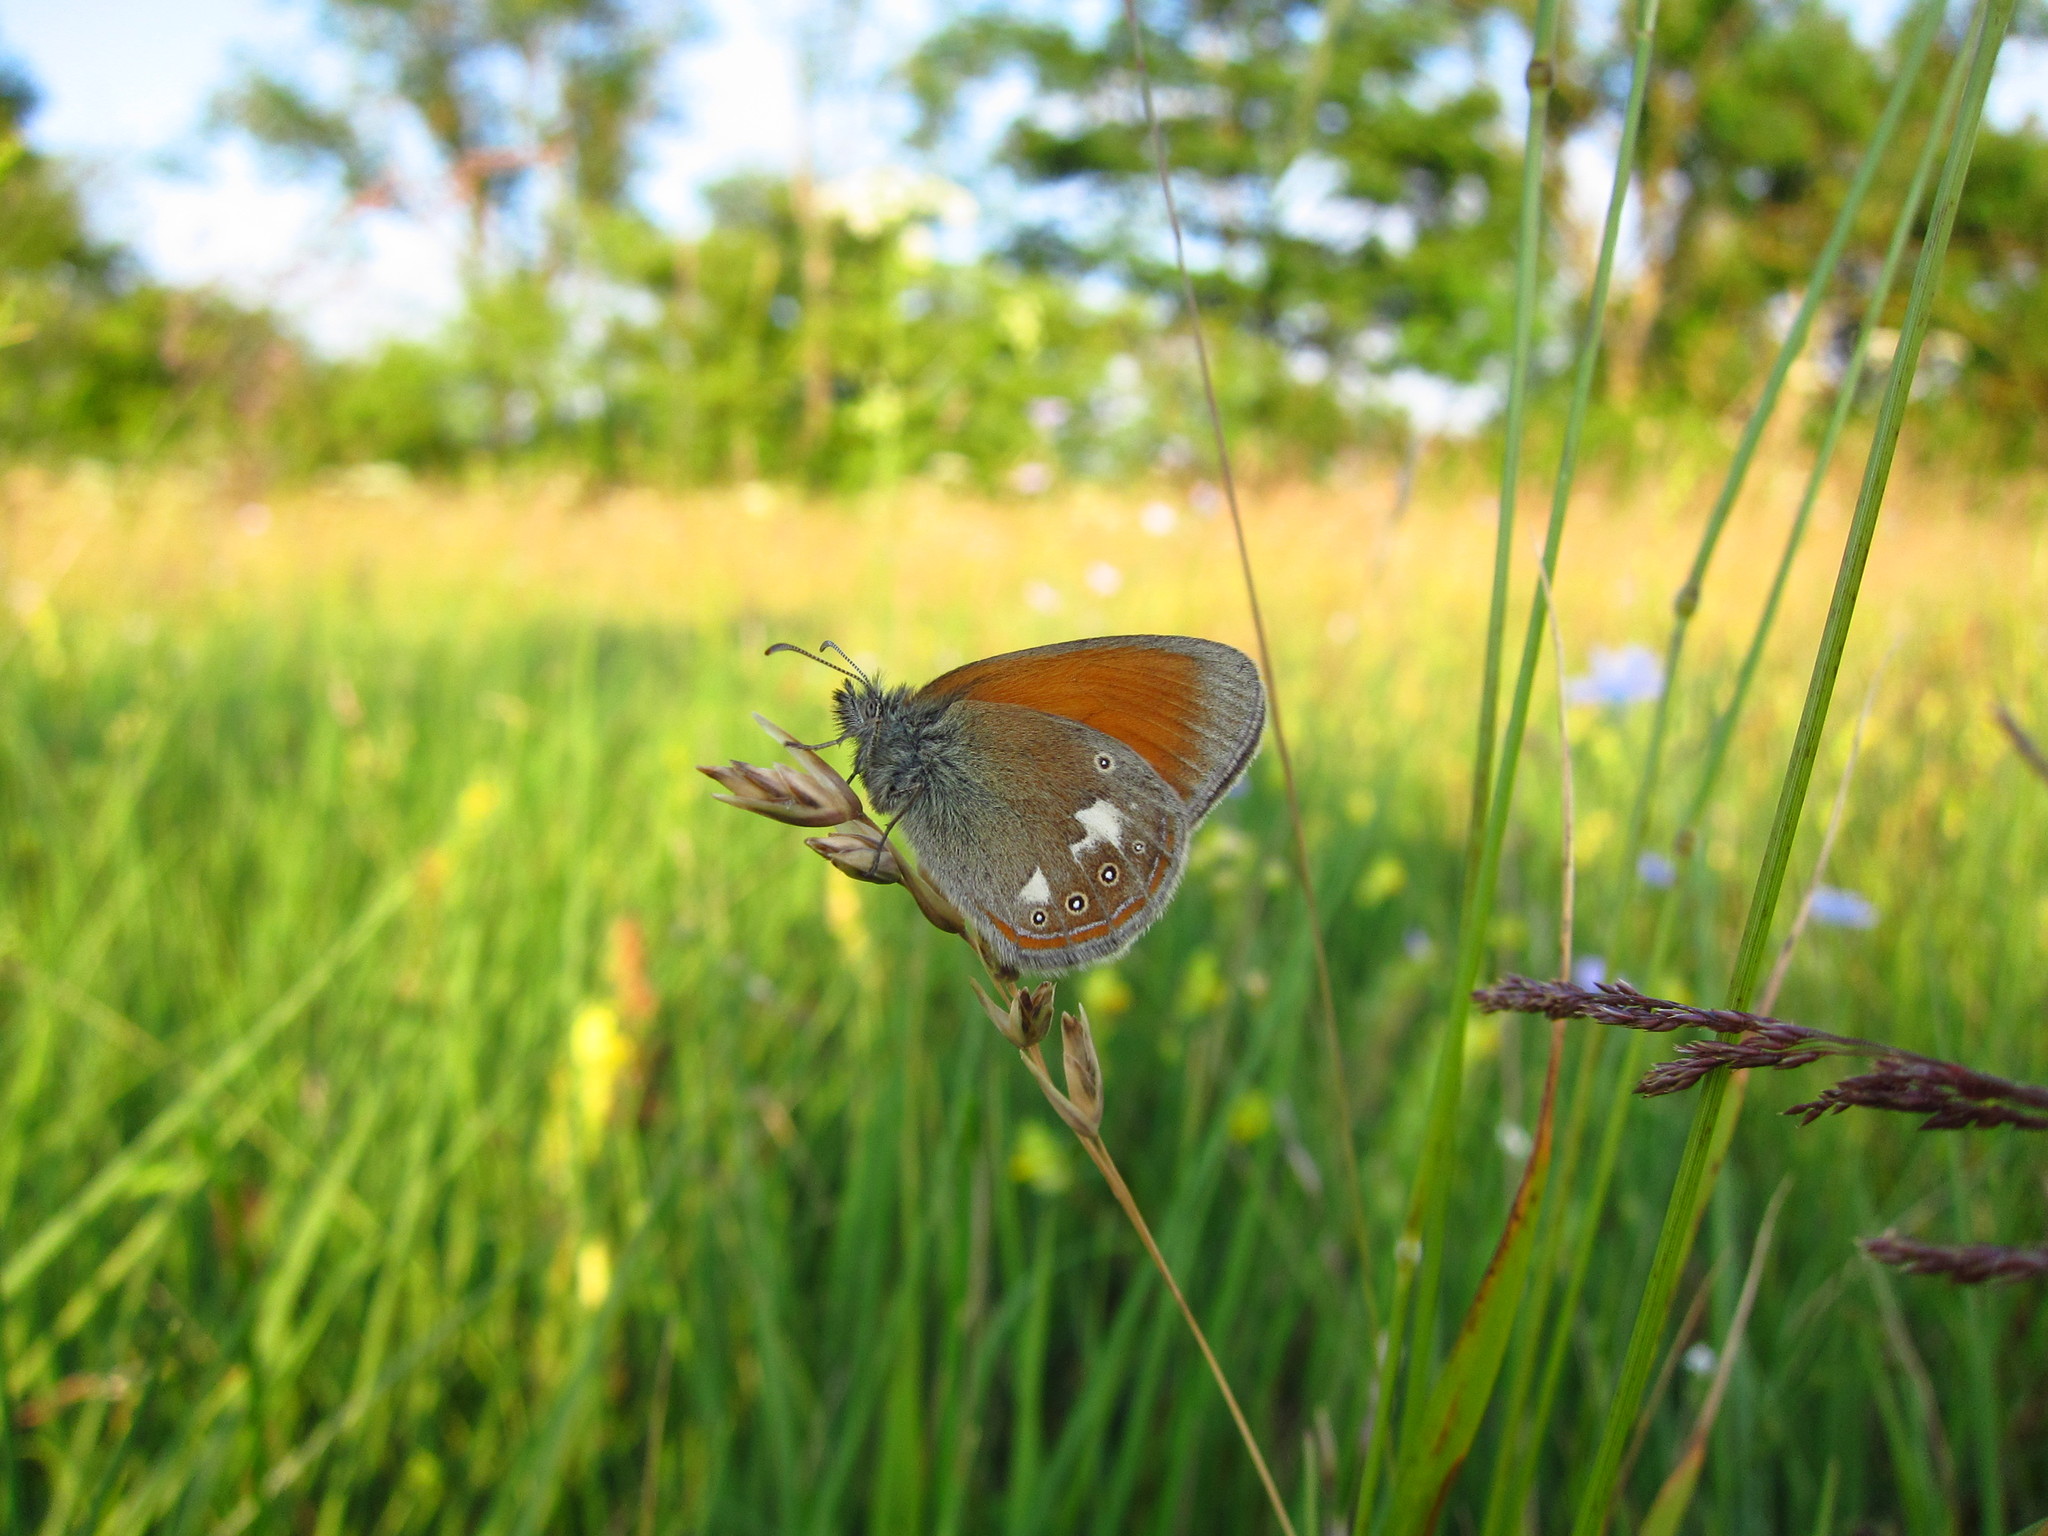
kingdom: Animalia
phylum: Arthropoda
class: Insecta
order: Lepidoptera
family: Nymphalidae
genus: Coenonympha
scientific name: Coenonympha iphis
